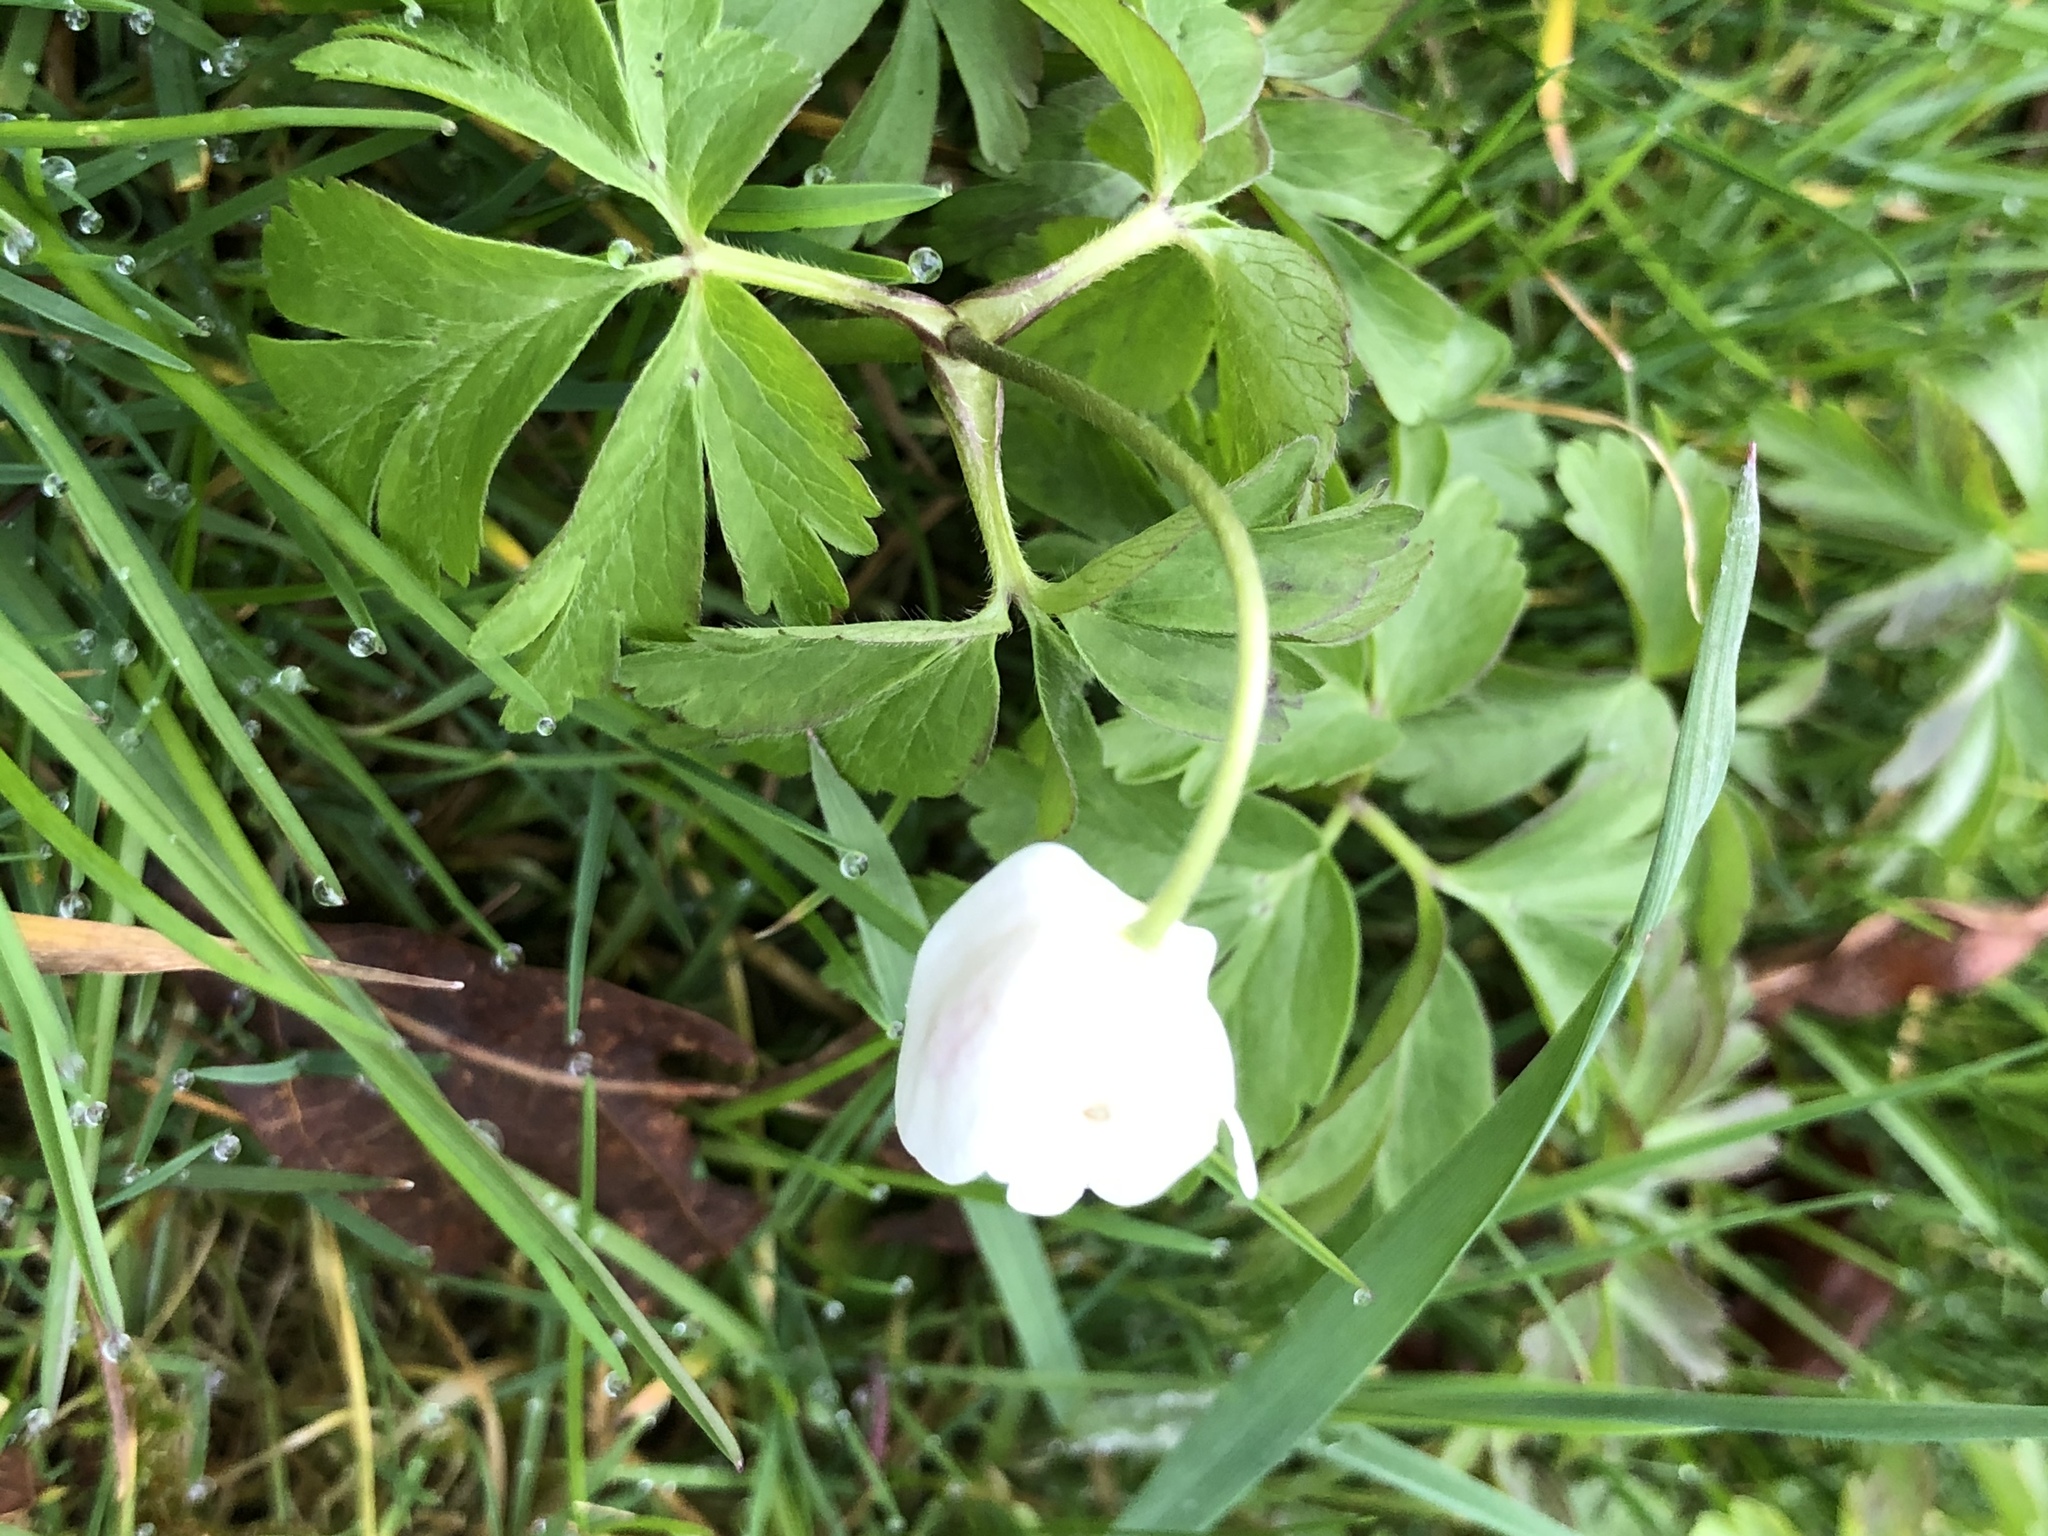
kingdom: Plantae
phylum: Tracheophyta
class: Magnoliopsida
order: Ranunculales
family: Ranunculaceae
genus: Anemone
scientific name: Anemone nemorosa
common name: Wood anemone
